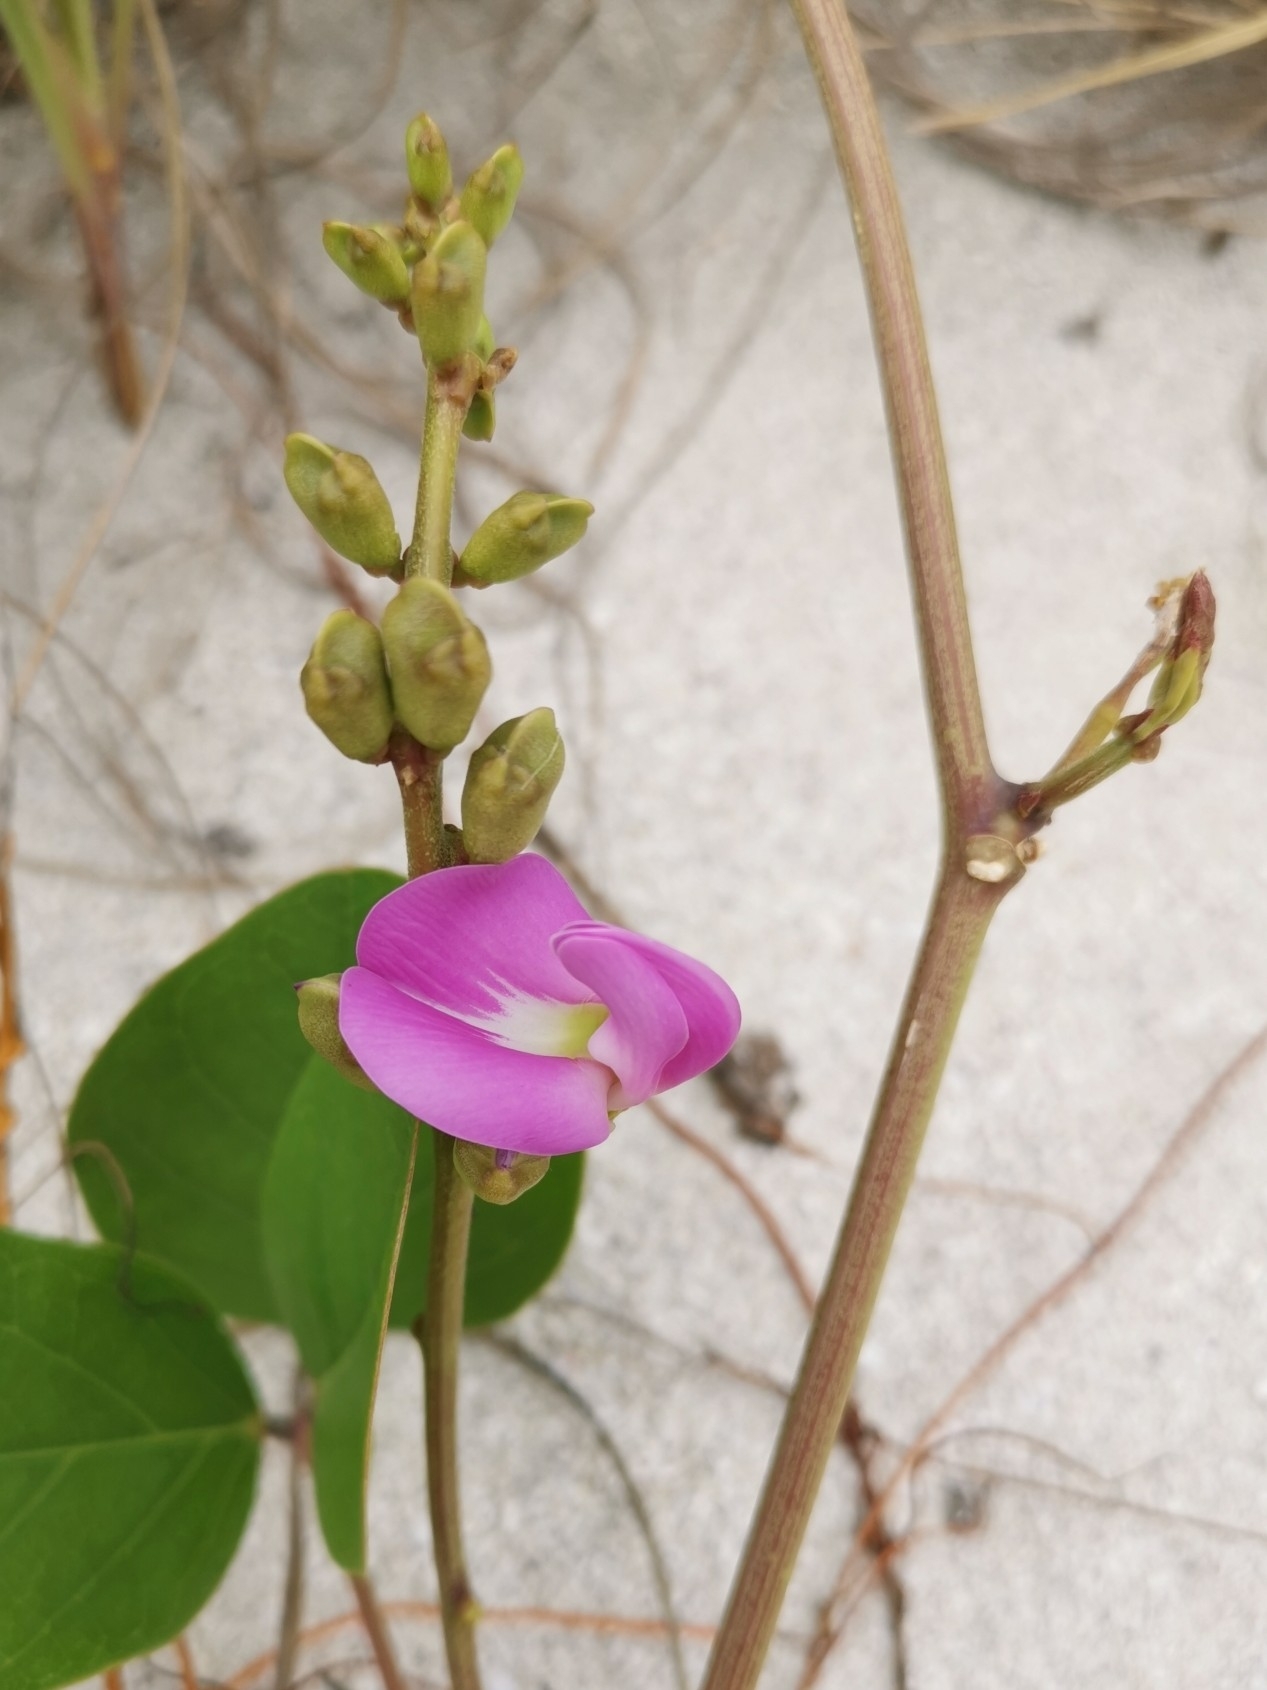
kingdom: Plantae
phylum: Tracheophyta
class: Magnoliopsida
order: Fabales
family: Fabaceae
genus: Canavalia
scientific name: Canavalia rosea
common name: Beach-bean
